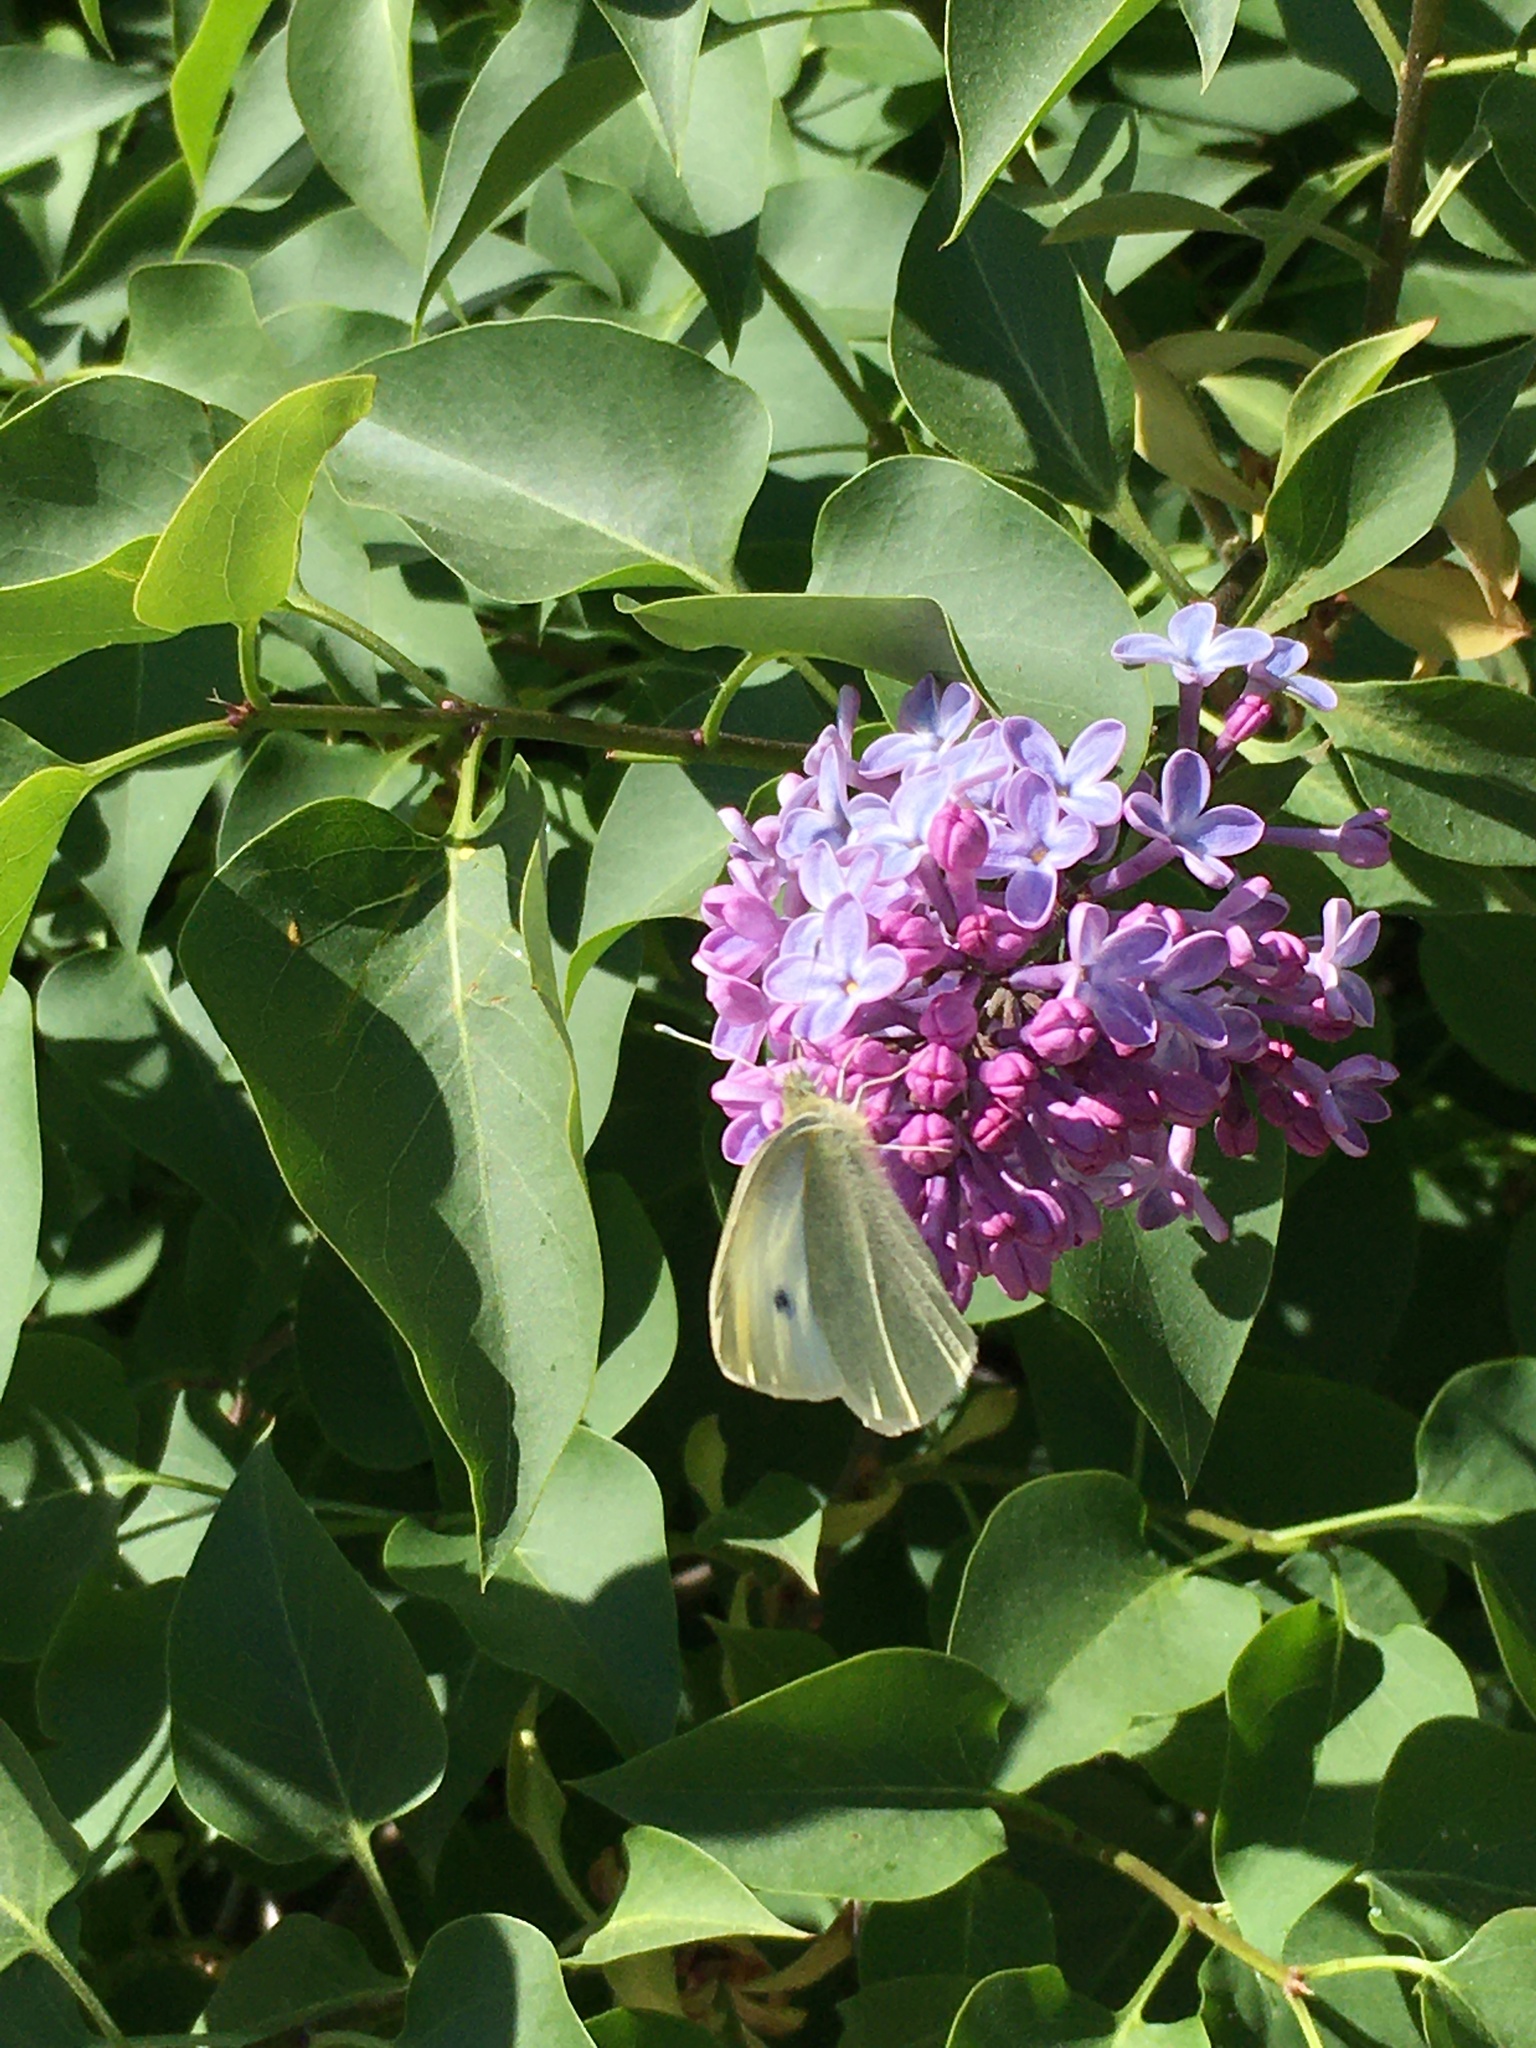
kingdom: Animalia
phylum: Arthropoda
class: Insecta
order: Lepidoptera
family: Pieridae
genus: Pieris
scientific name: Pieris rapae
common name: Small white
